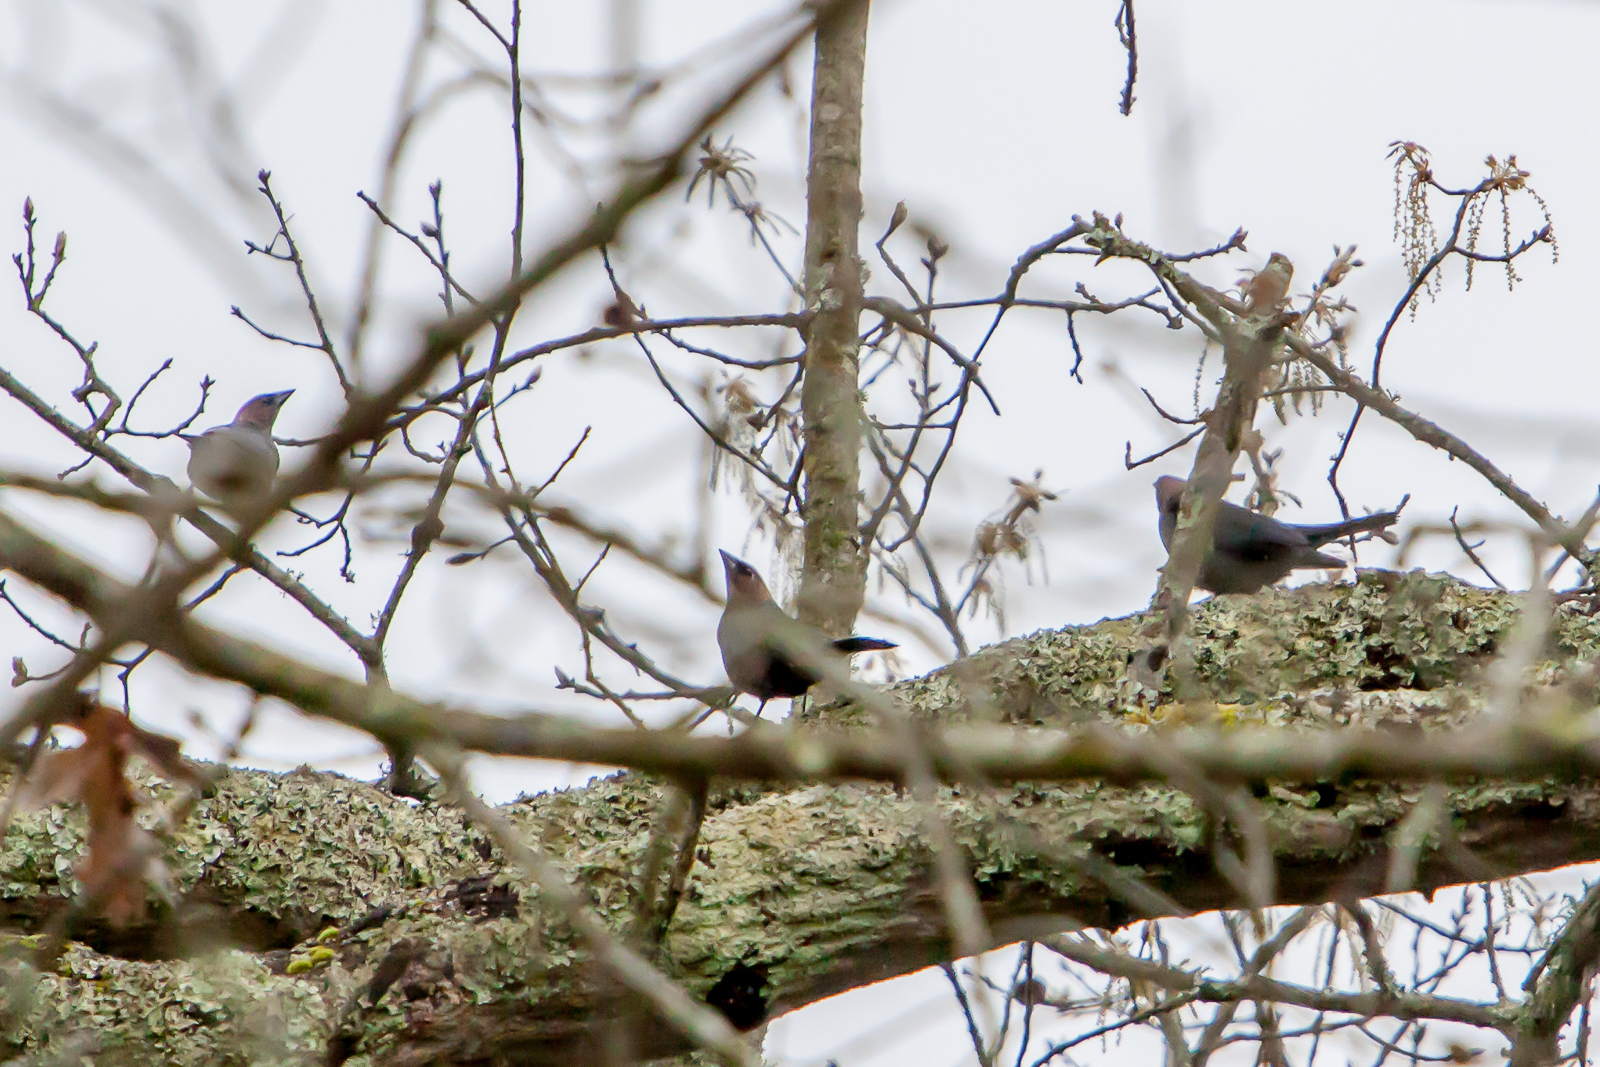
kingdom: Animalia
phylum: Chordata
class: Aves
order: Passeriformes
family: Icteridae
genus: Molothrus
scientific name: Molothrus ater
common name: Brown-headed cowbird
